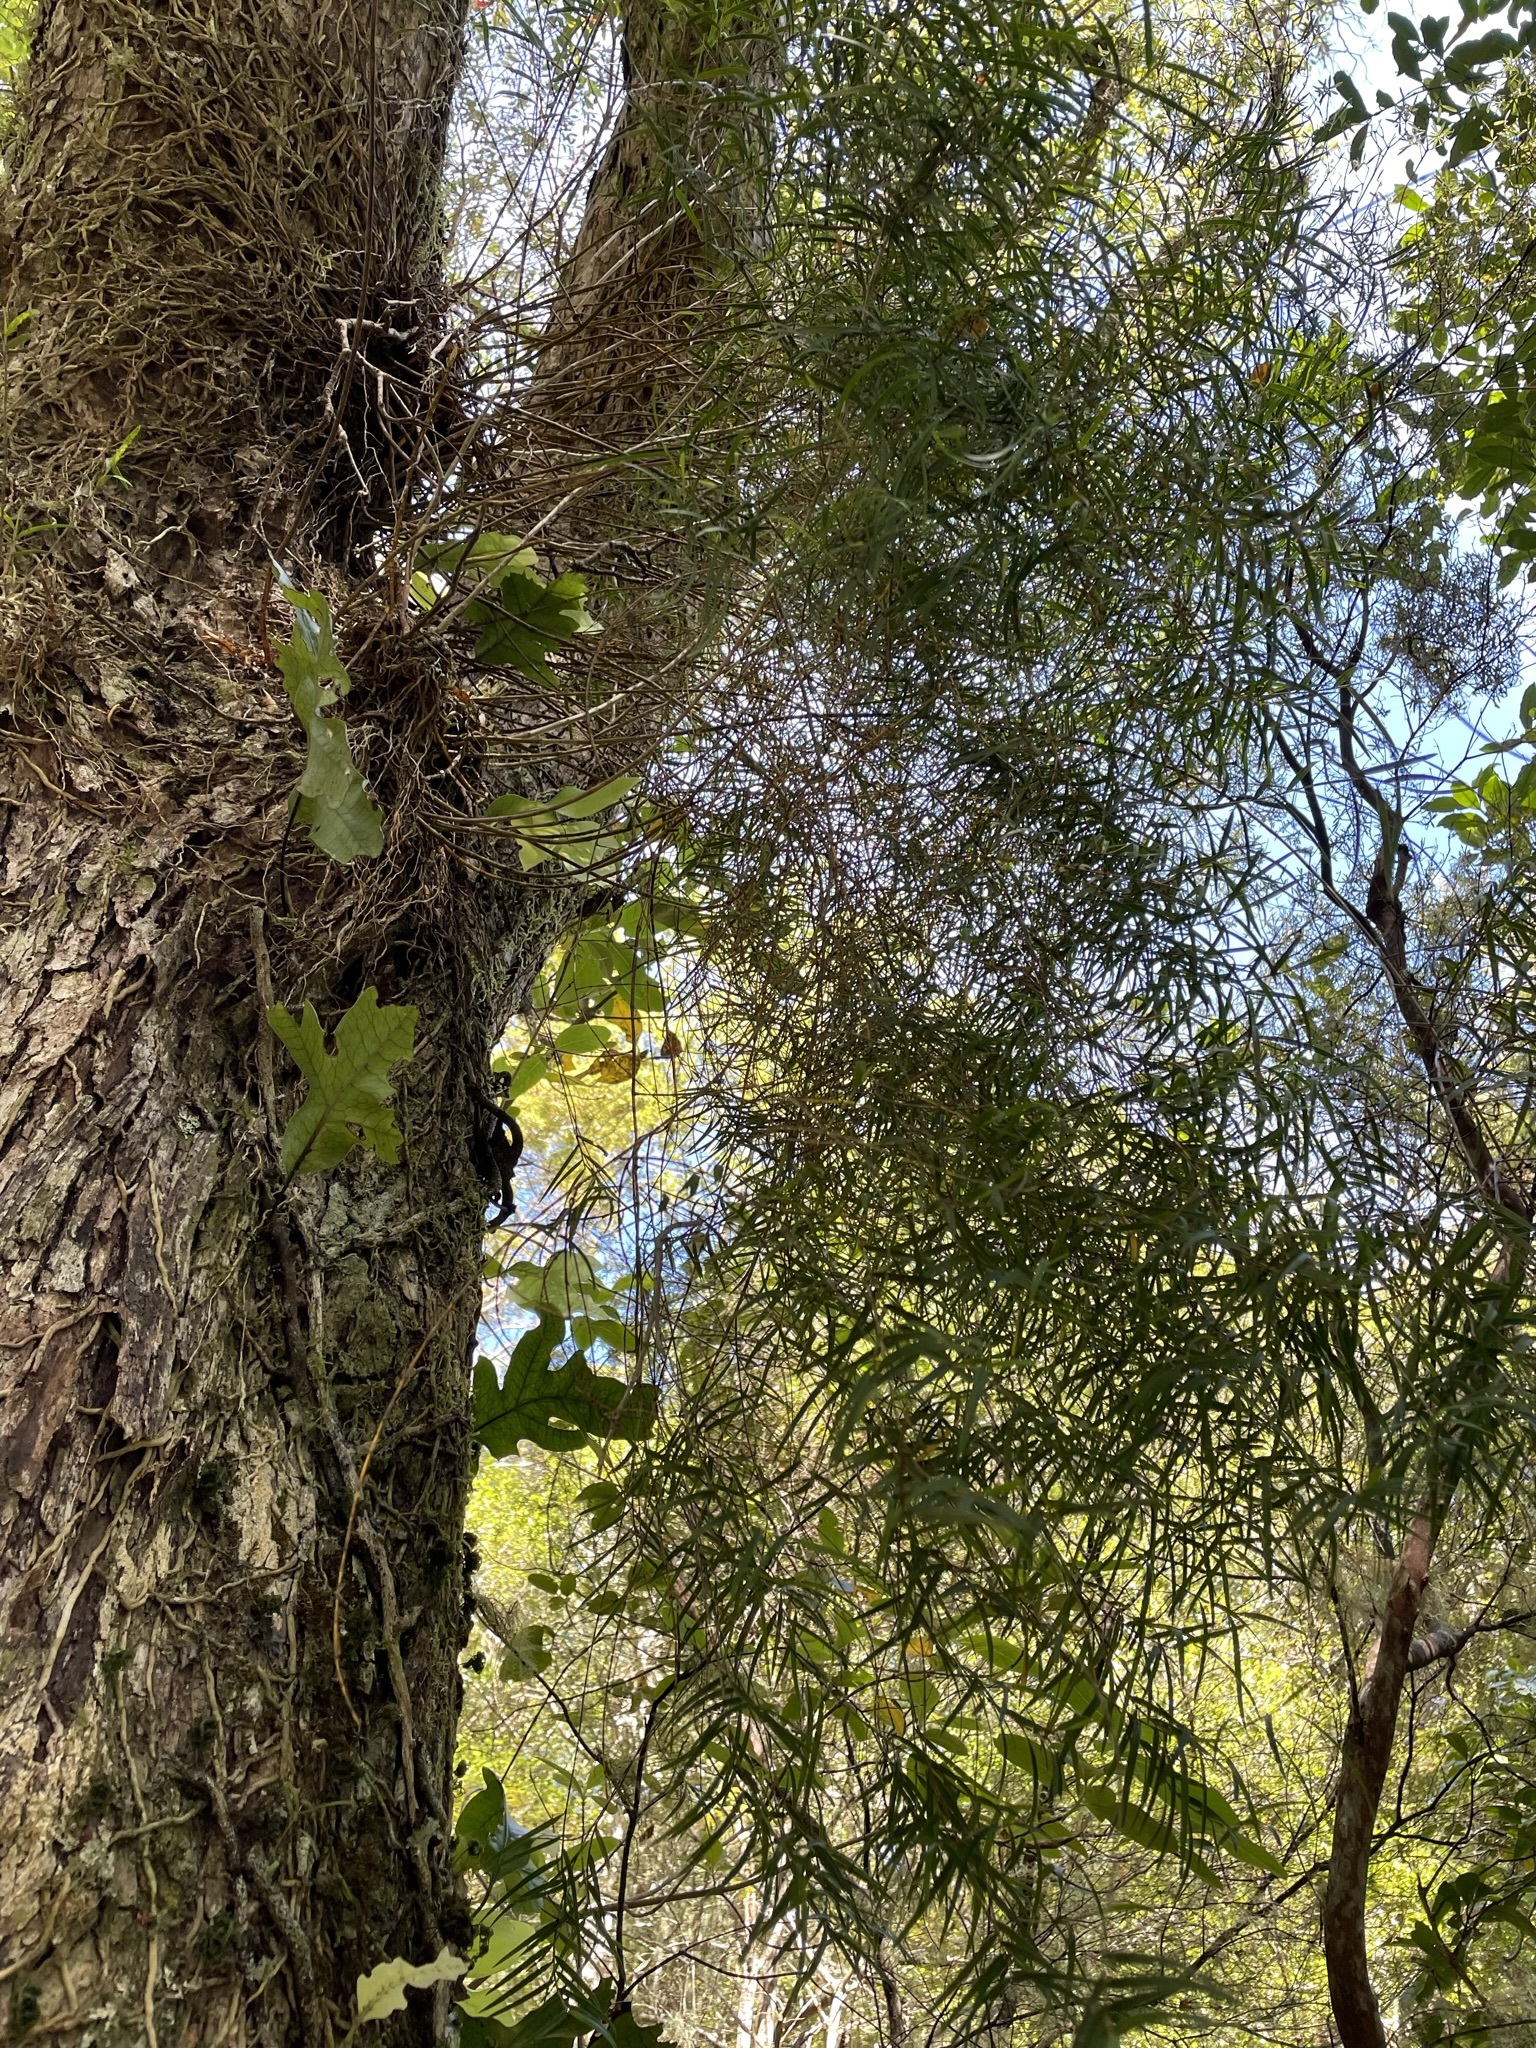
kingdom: Plantae
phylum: Tracheophyta
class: Liliopsida
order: Asparagales
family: Orchidaceae
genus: Dendrobium
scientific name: Dendrobium cunninghamii
